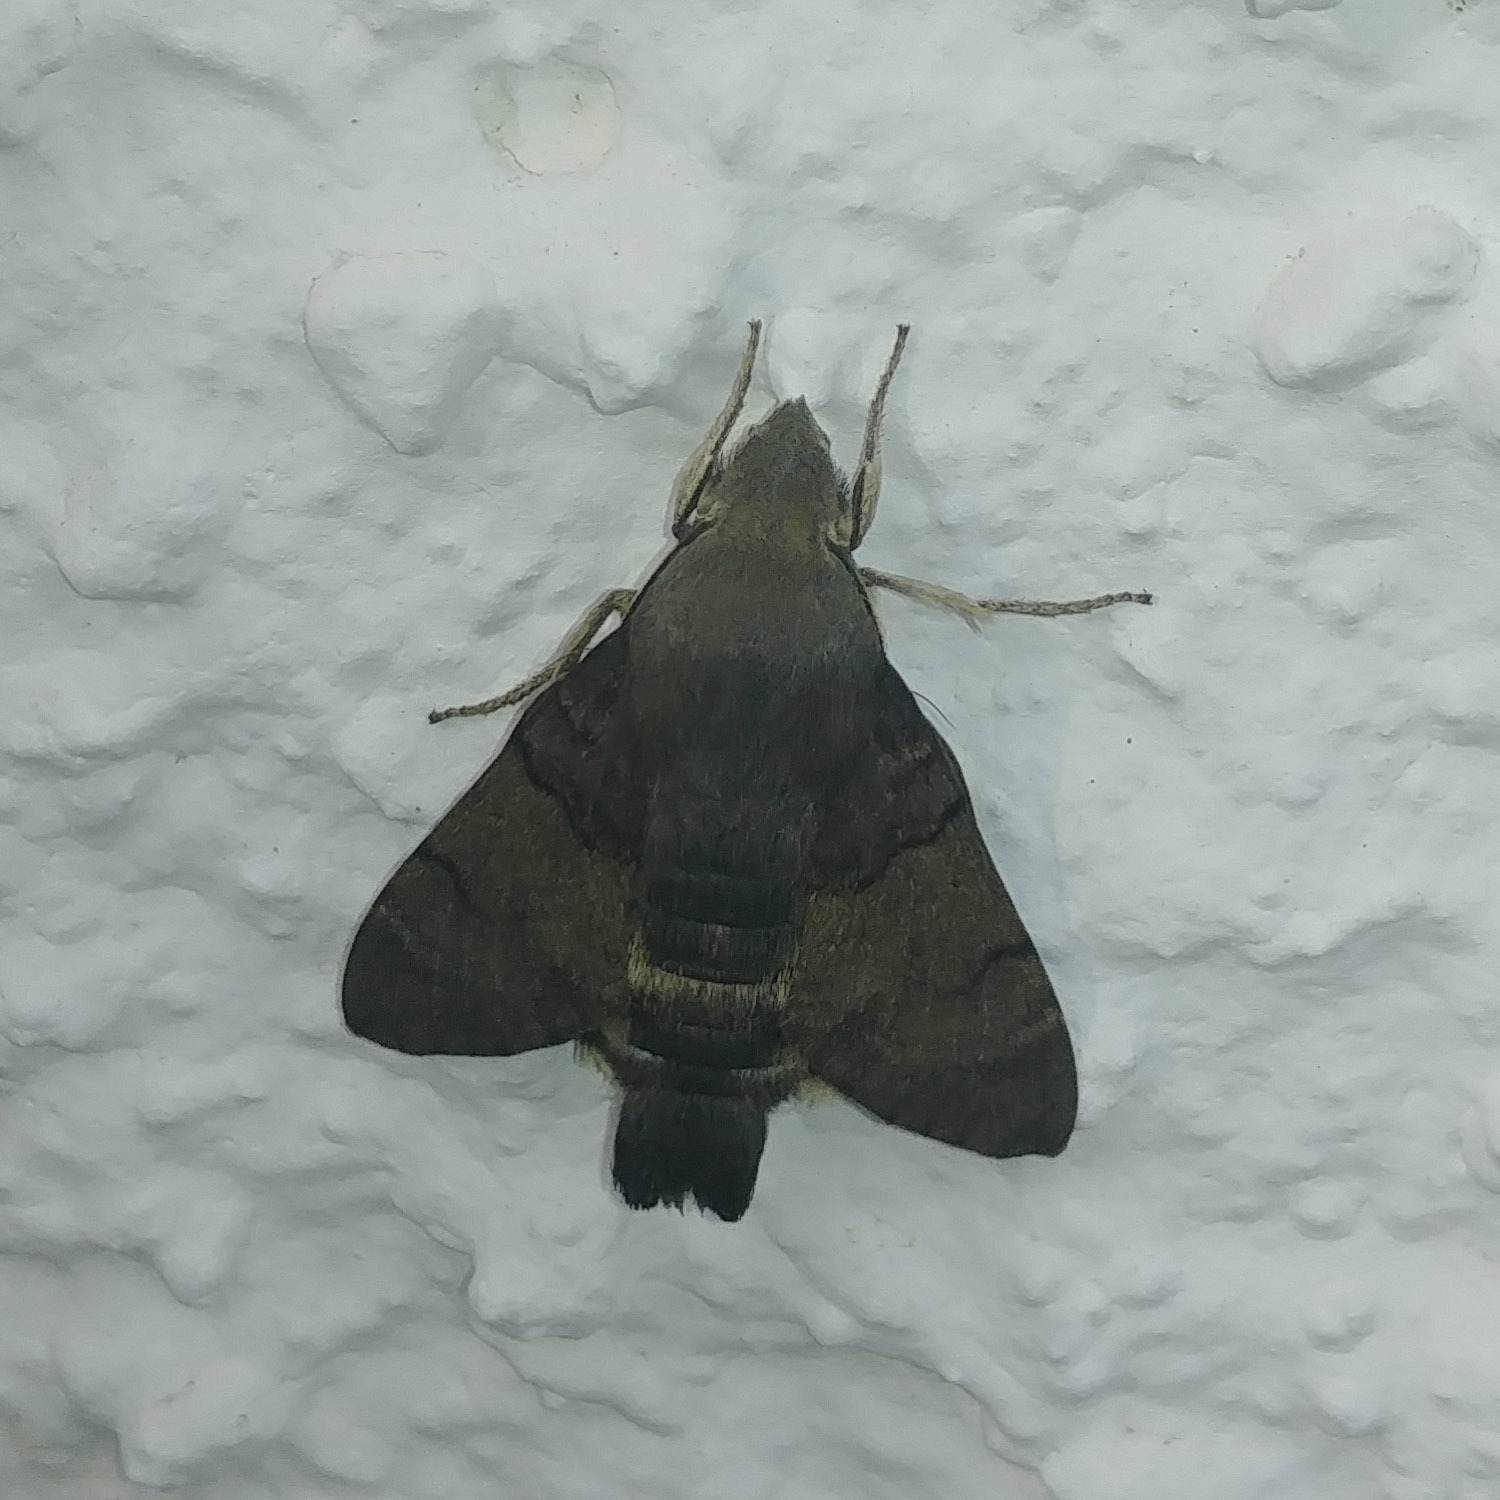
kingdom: Animalia
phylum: Arthropoda
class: Insecta
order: Lepidoptera
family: Sphingidae
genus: Macroglossum
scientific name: Macroglossum stellatarum
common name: Humming-bird hawk-moth
